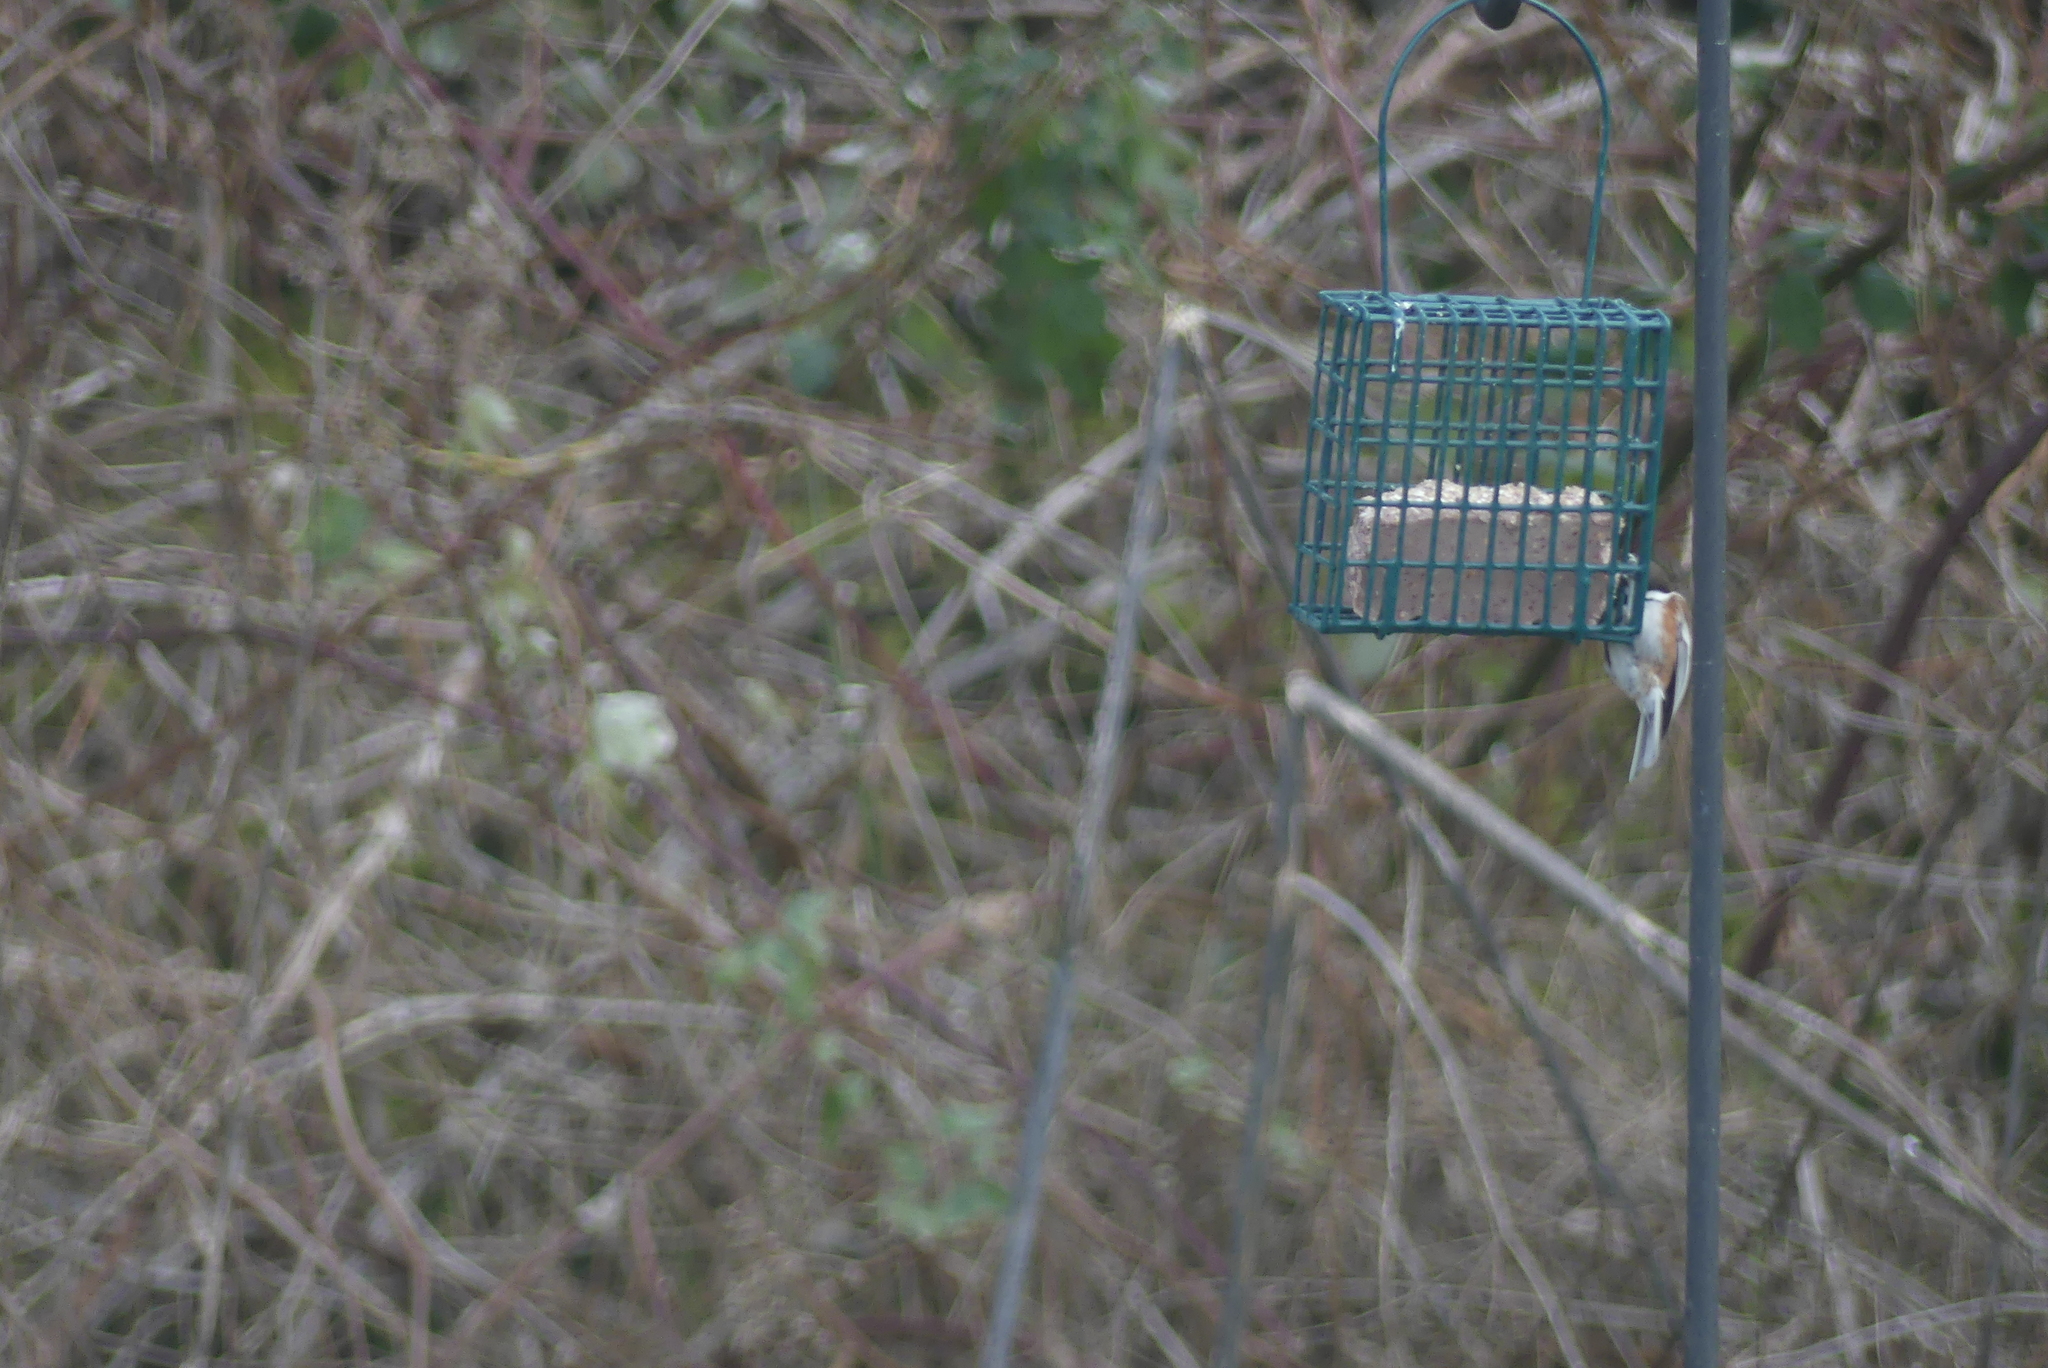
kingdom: Animalia
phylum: Chordata
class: Aves
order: Passeriformes
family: Paridae
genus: Poecile
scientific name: Poecile rufescens
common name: Chestnut-backed chickadee
